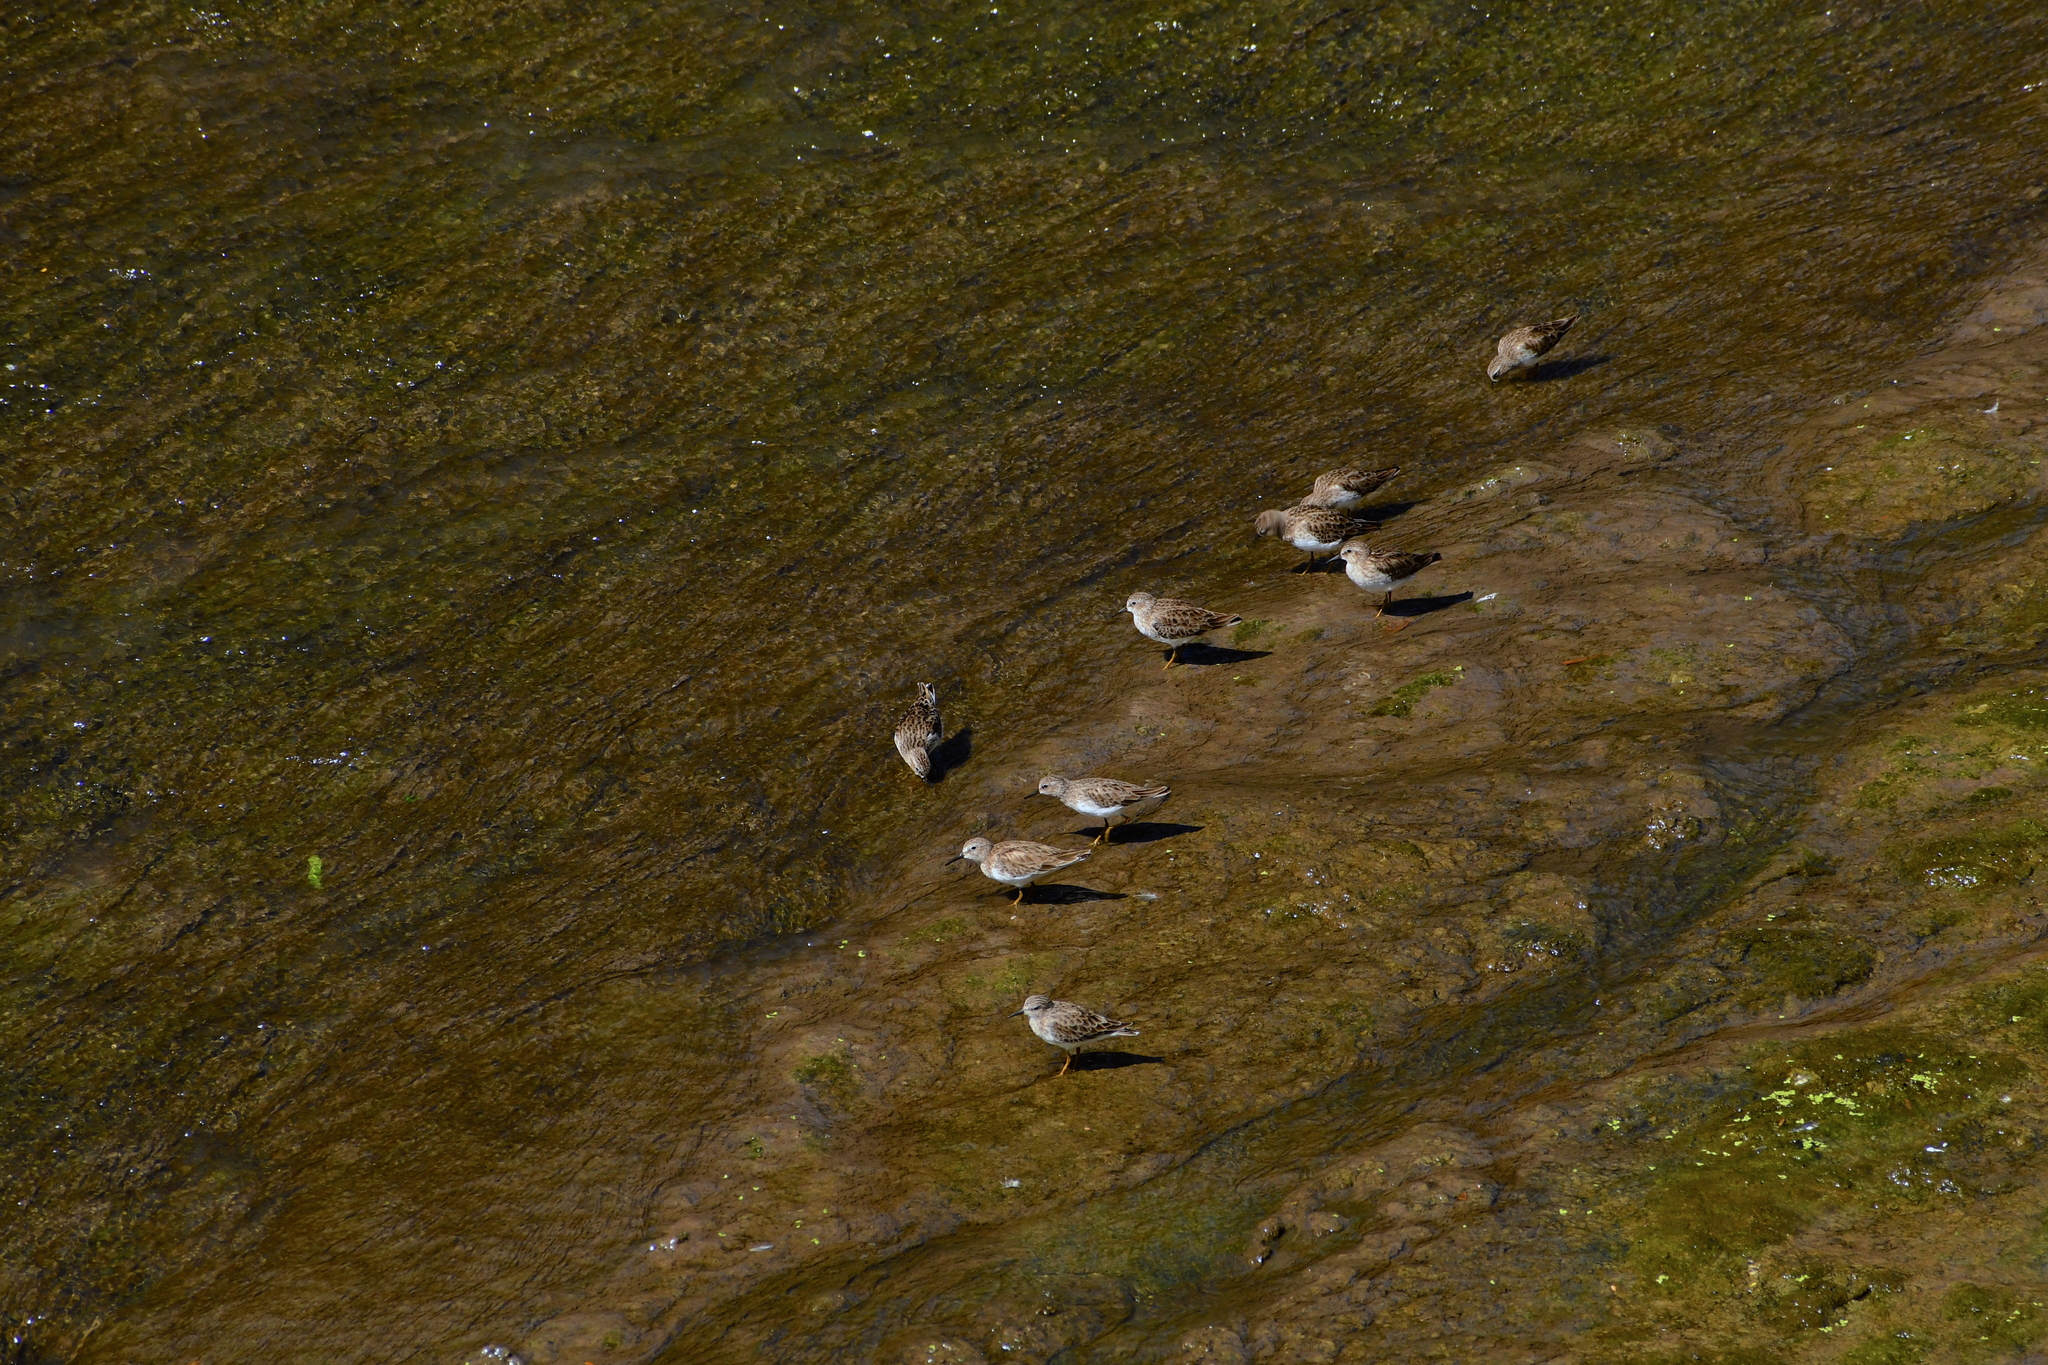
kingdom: Animalia
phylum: Chordata
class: Aves
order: Charadriiformes
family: Scolopacidae
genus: Calidris
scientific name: Calidris minutilla
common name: Least sandpiper
